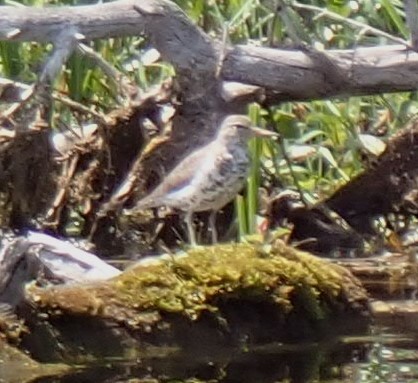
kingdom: Animalia
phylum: Chordata
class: Aves
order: Charadriiformes
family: Scolopacidae
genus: Actitis
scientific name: Actitis macularius
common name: Spotted sandpiper
